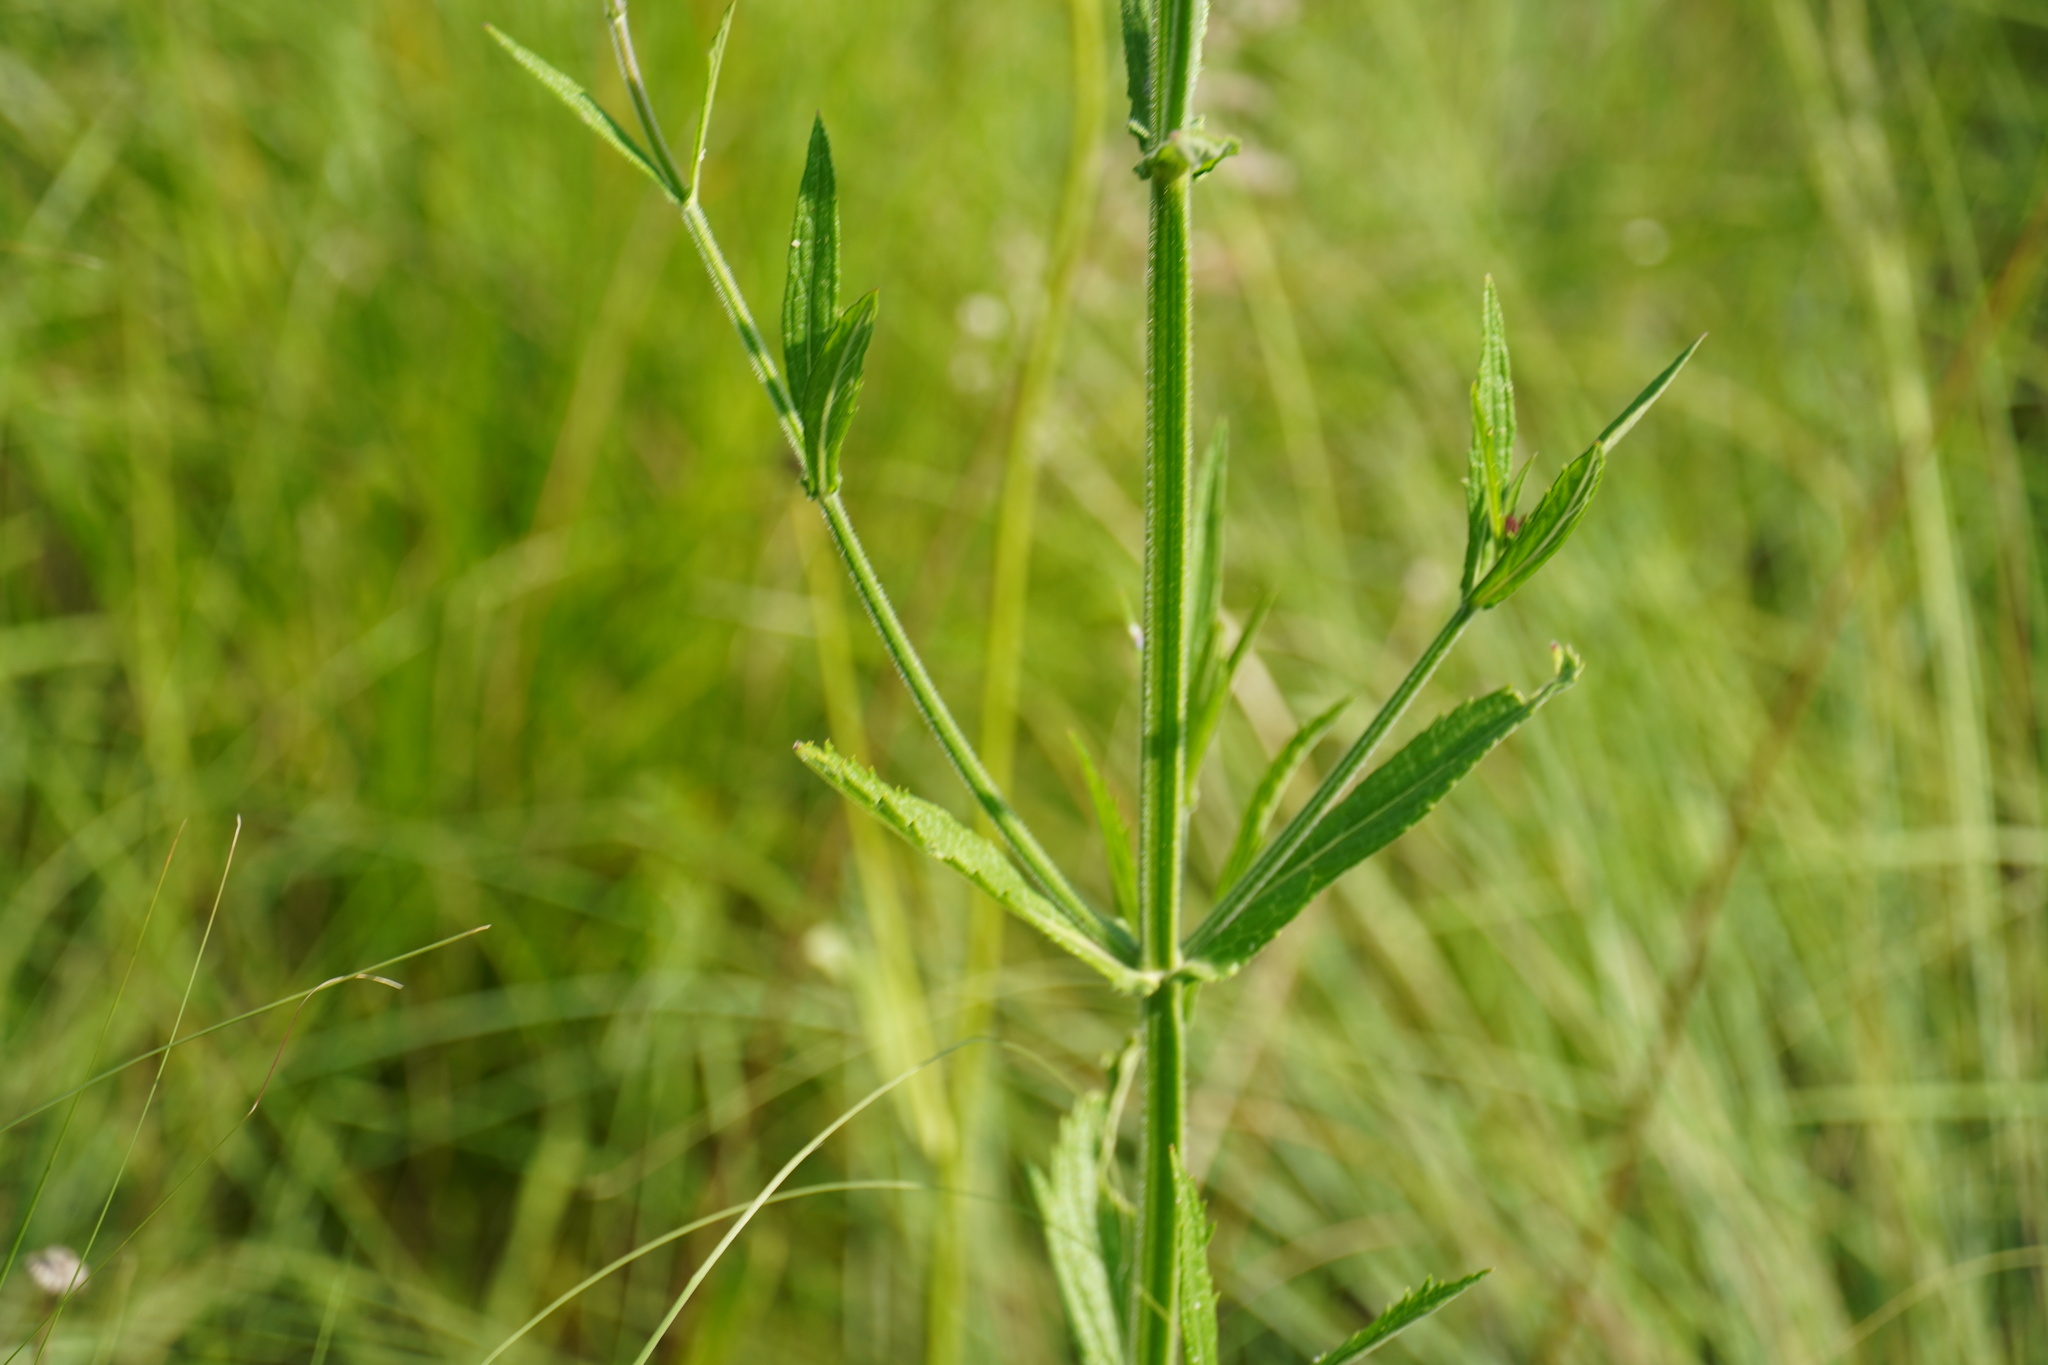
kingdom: Plantae
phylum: Tracheophyta
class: Magnoliopsida
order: Lamiales
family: Verbenaceae
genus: Verbena
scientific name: Verbena incompta
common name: Purpletop vervain
